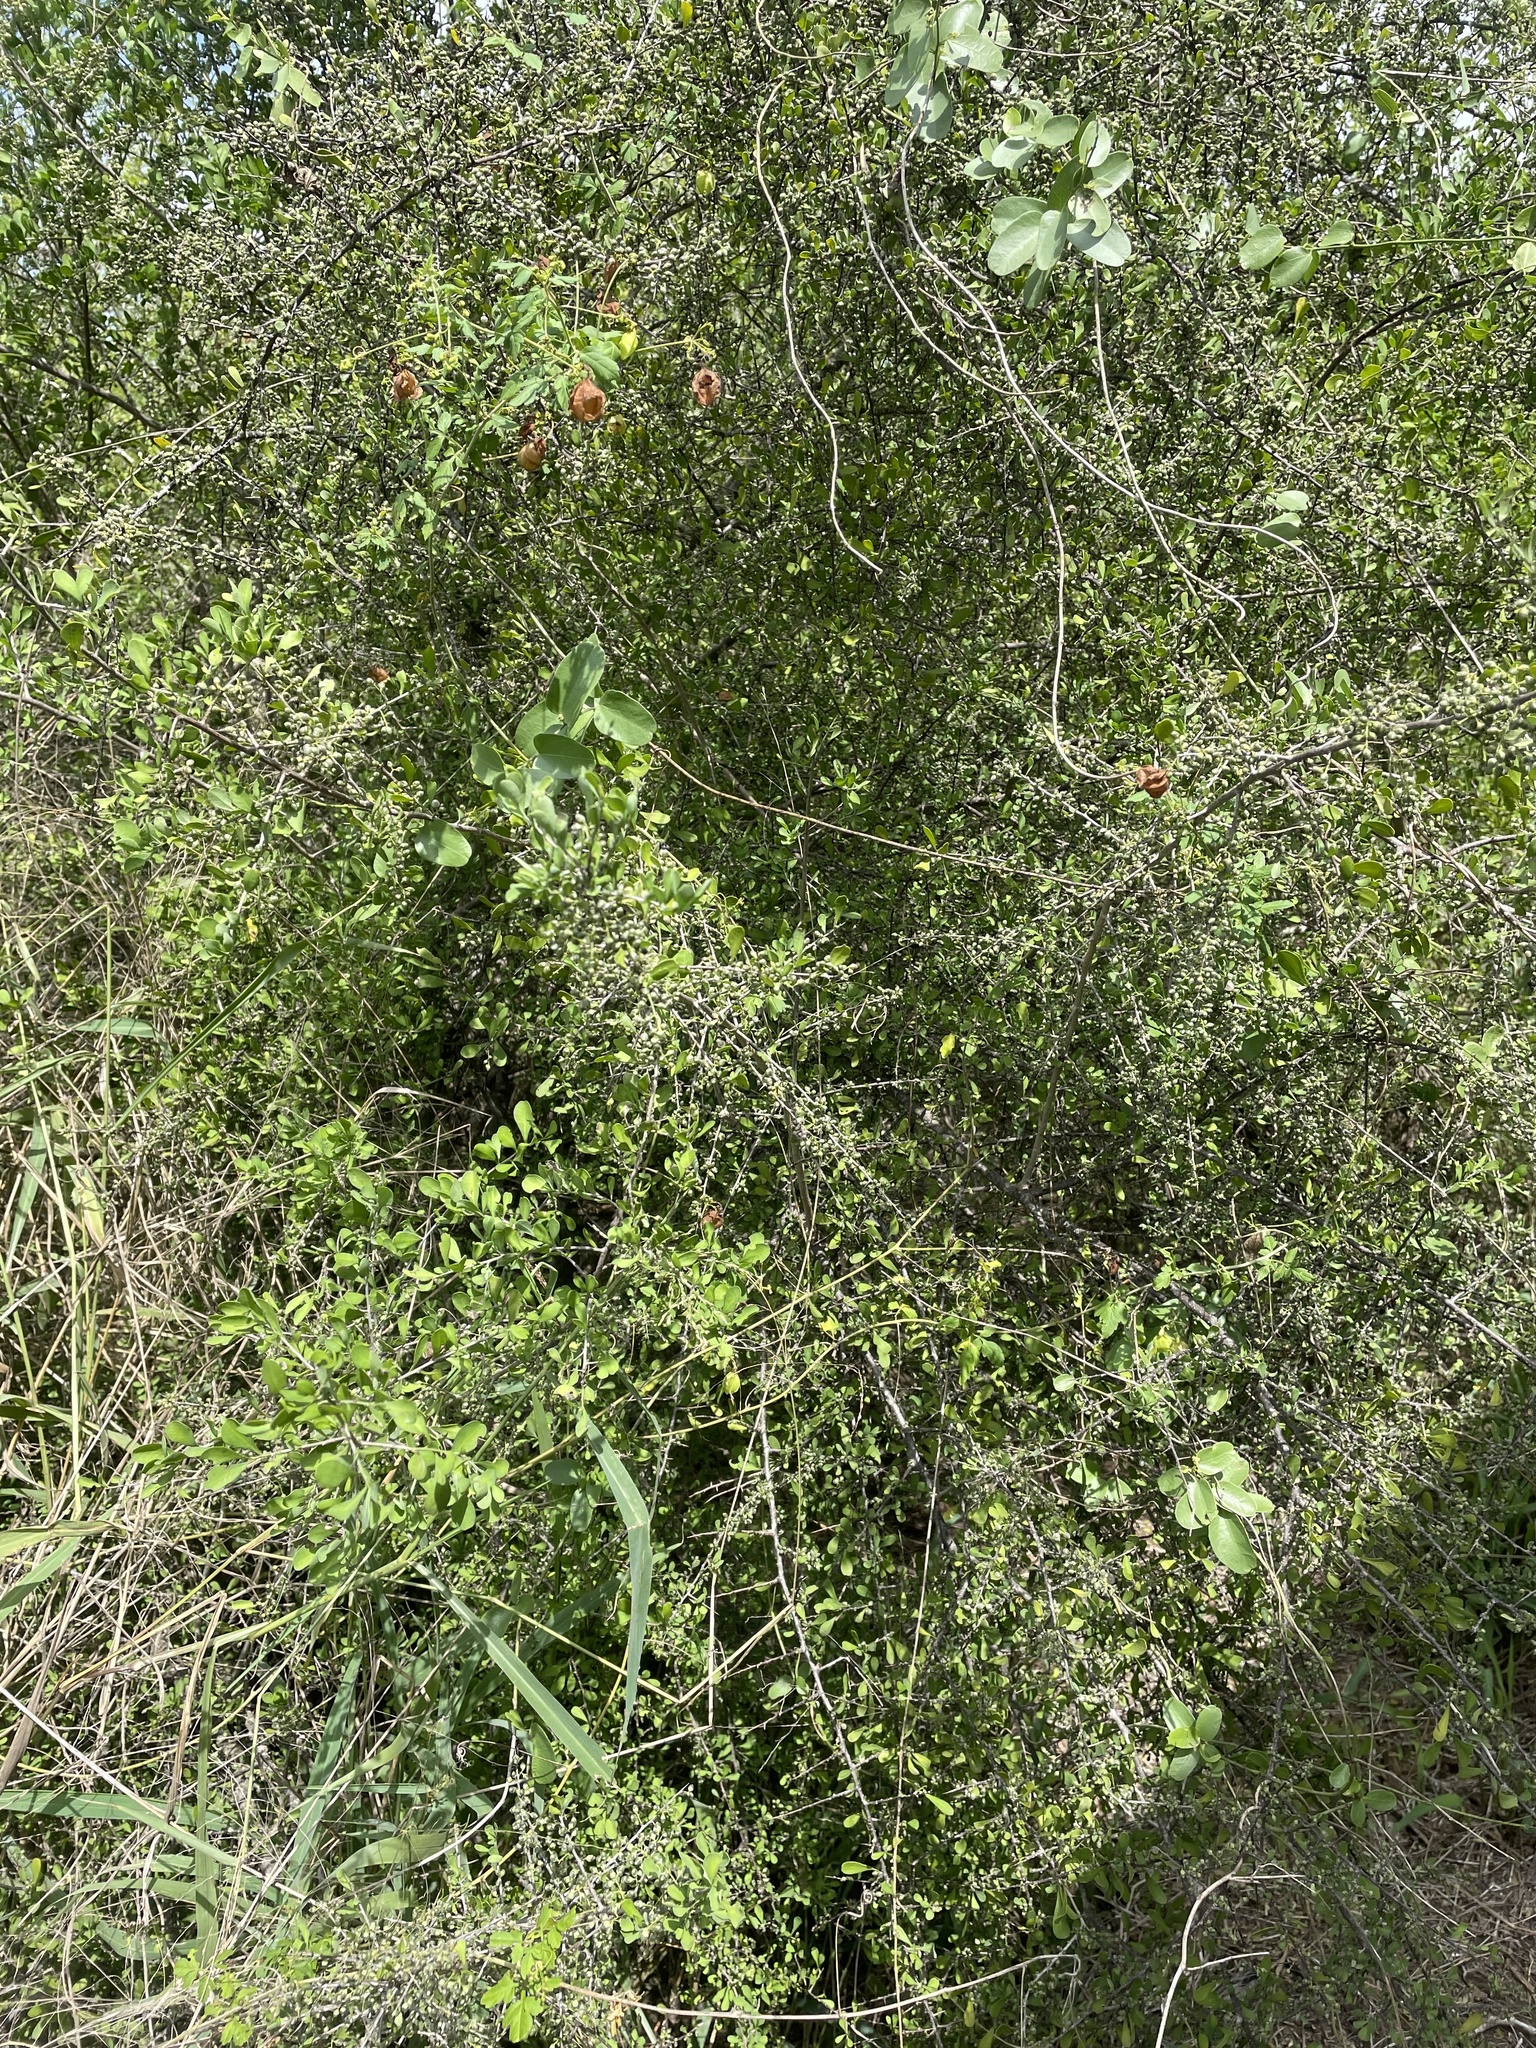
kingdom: Plantae
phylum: Tracheophyta
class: Magnoliopsida
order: Caryophyllales
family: Achatocarpaceae
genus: Phaulothamnus
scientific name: Phaulothamnus spinescens
